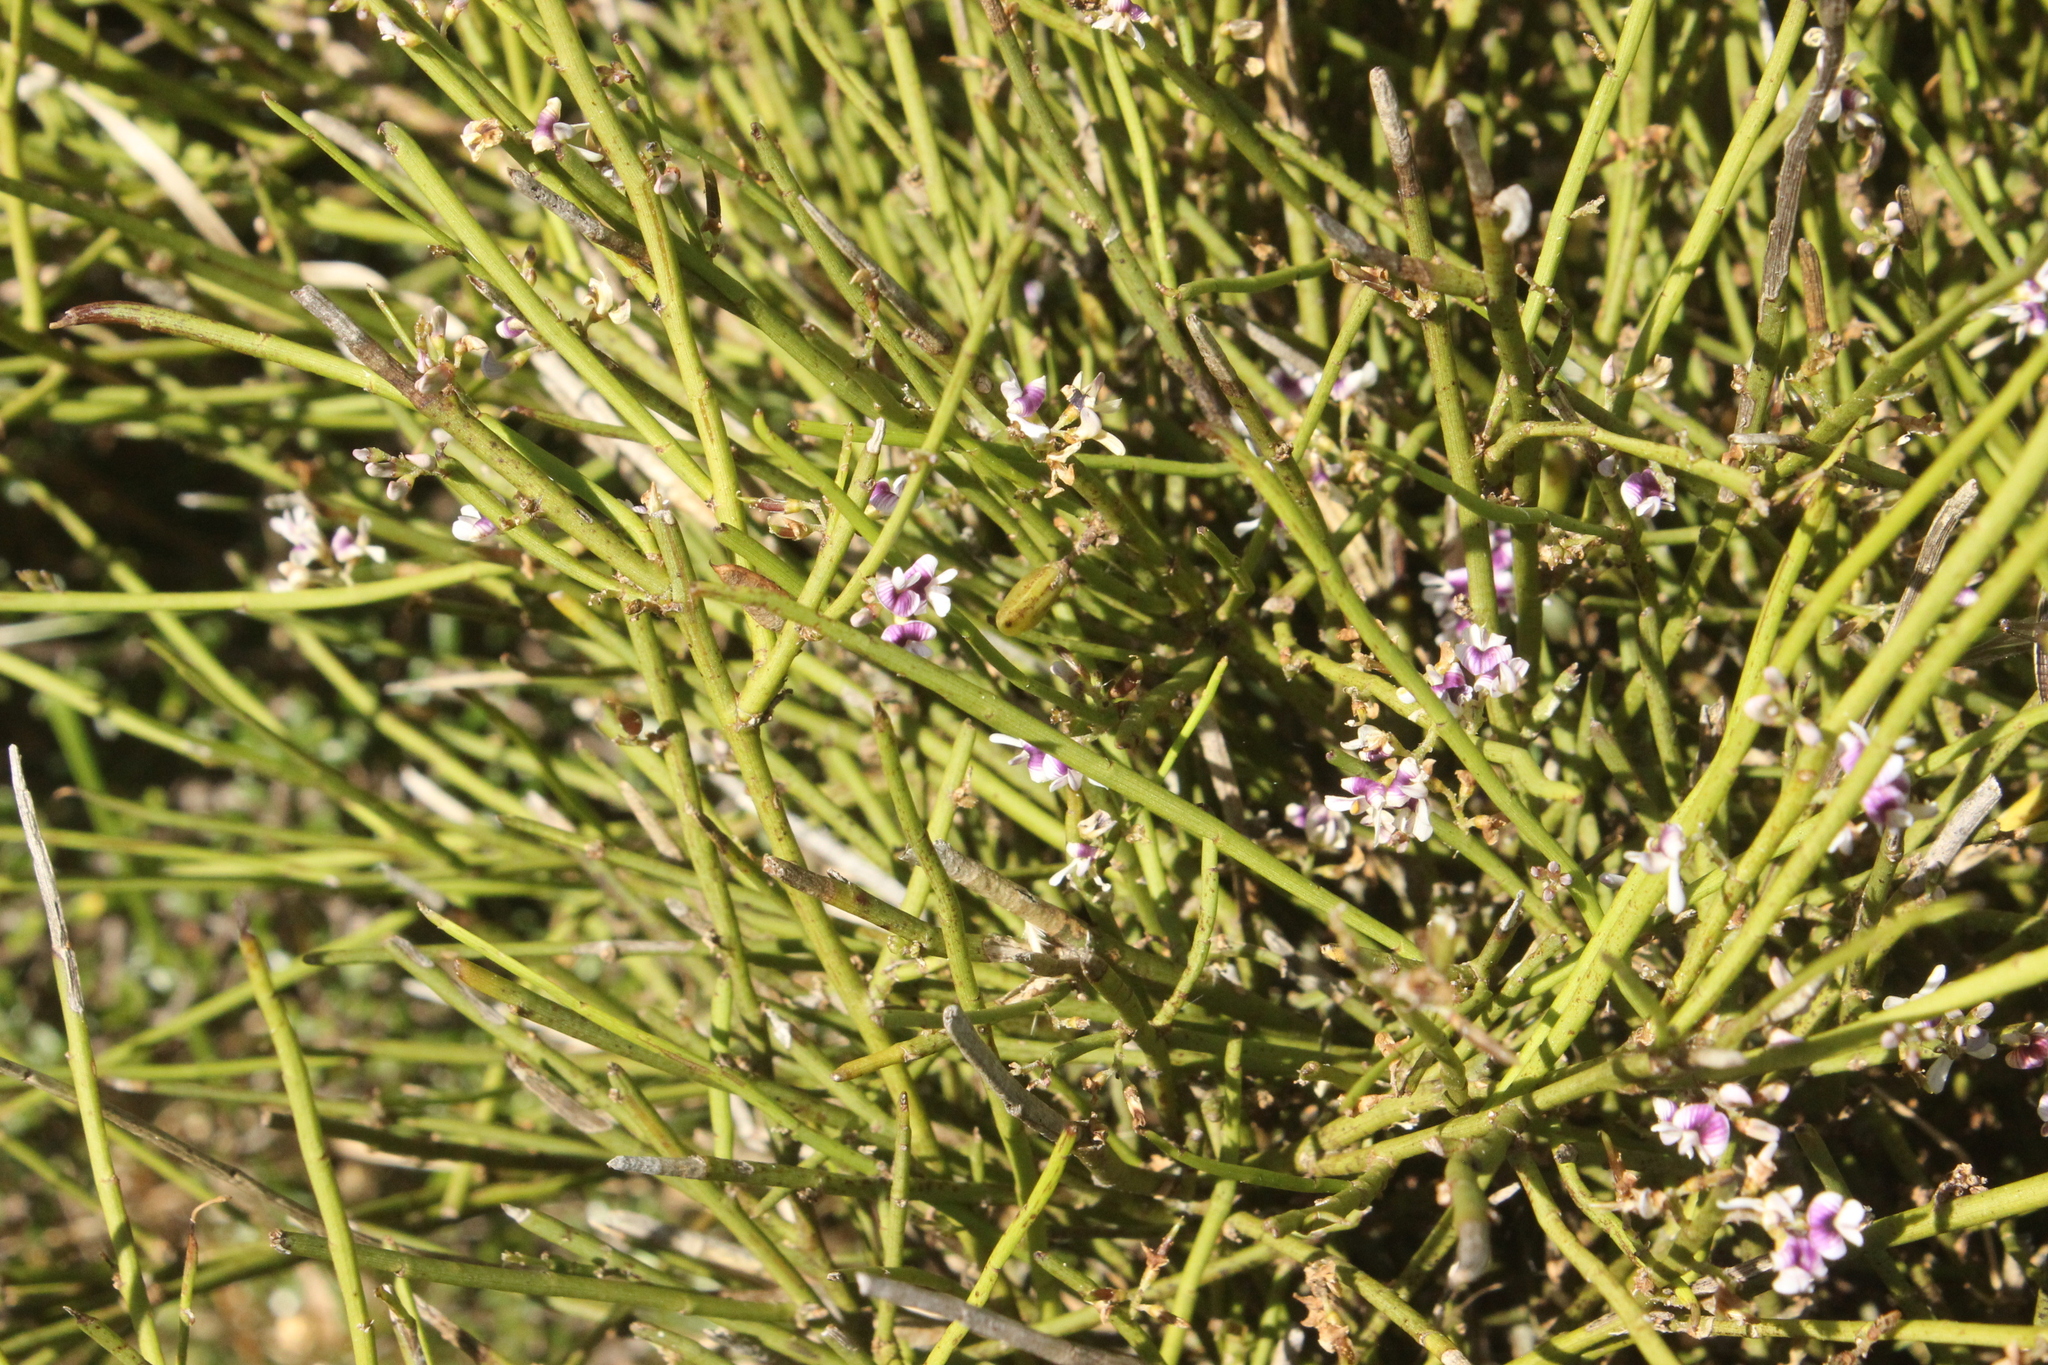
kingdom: Plantae
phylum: Tracheophyta
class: Magnoliopsida
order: Fabales
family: Fabaceae
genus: Carmichaelia
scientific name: Carmichaelia australis
